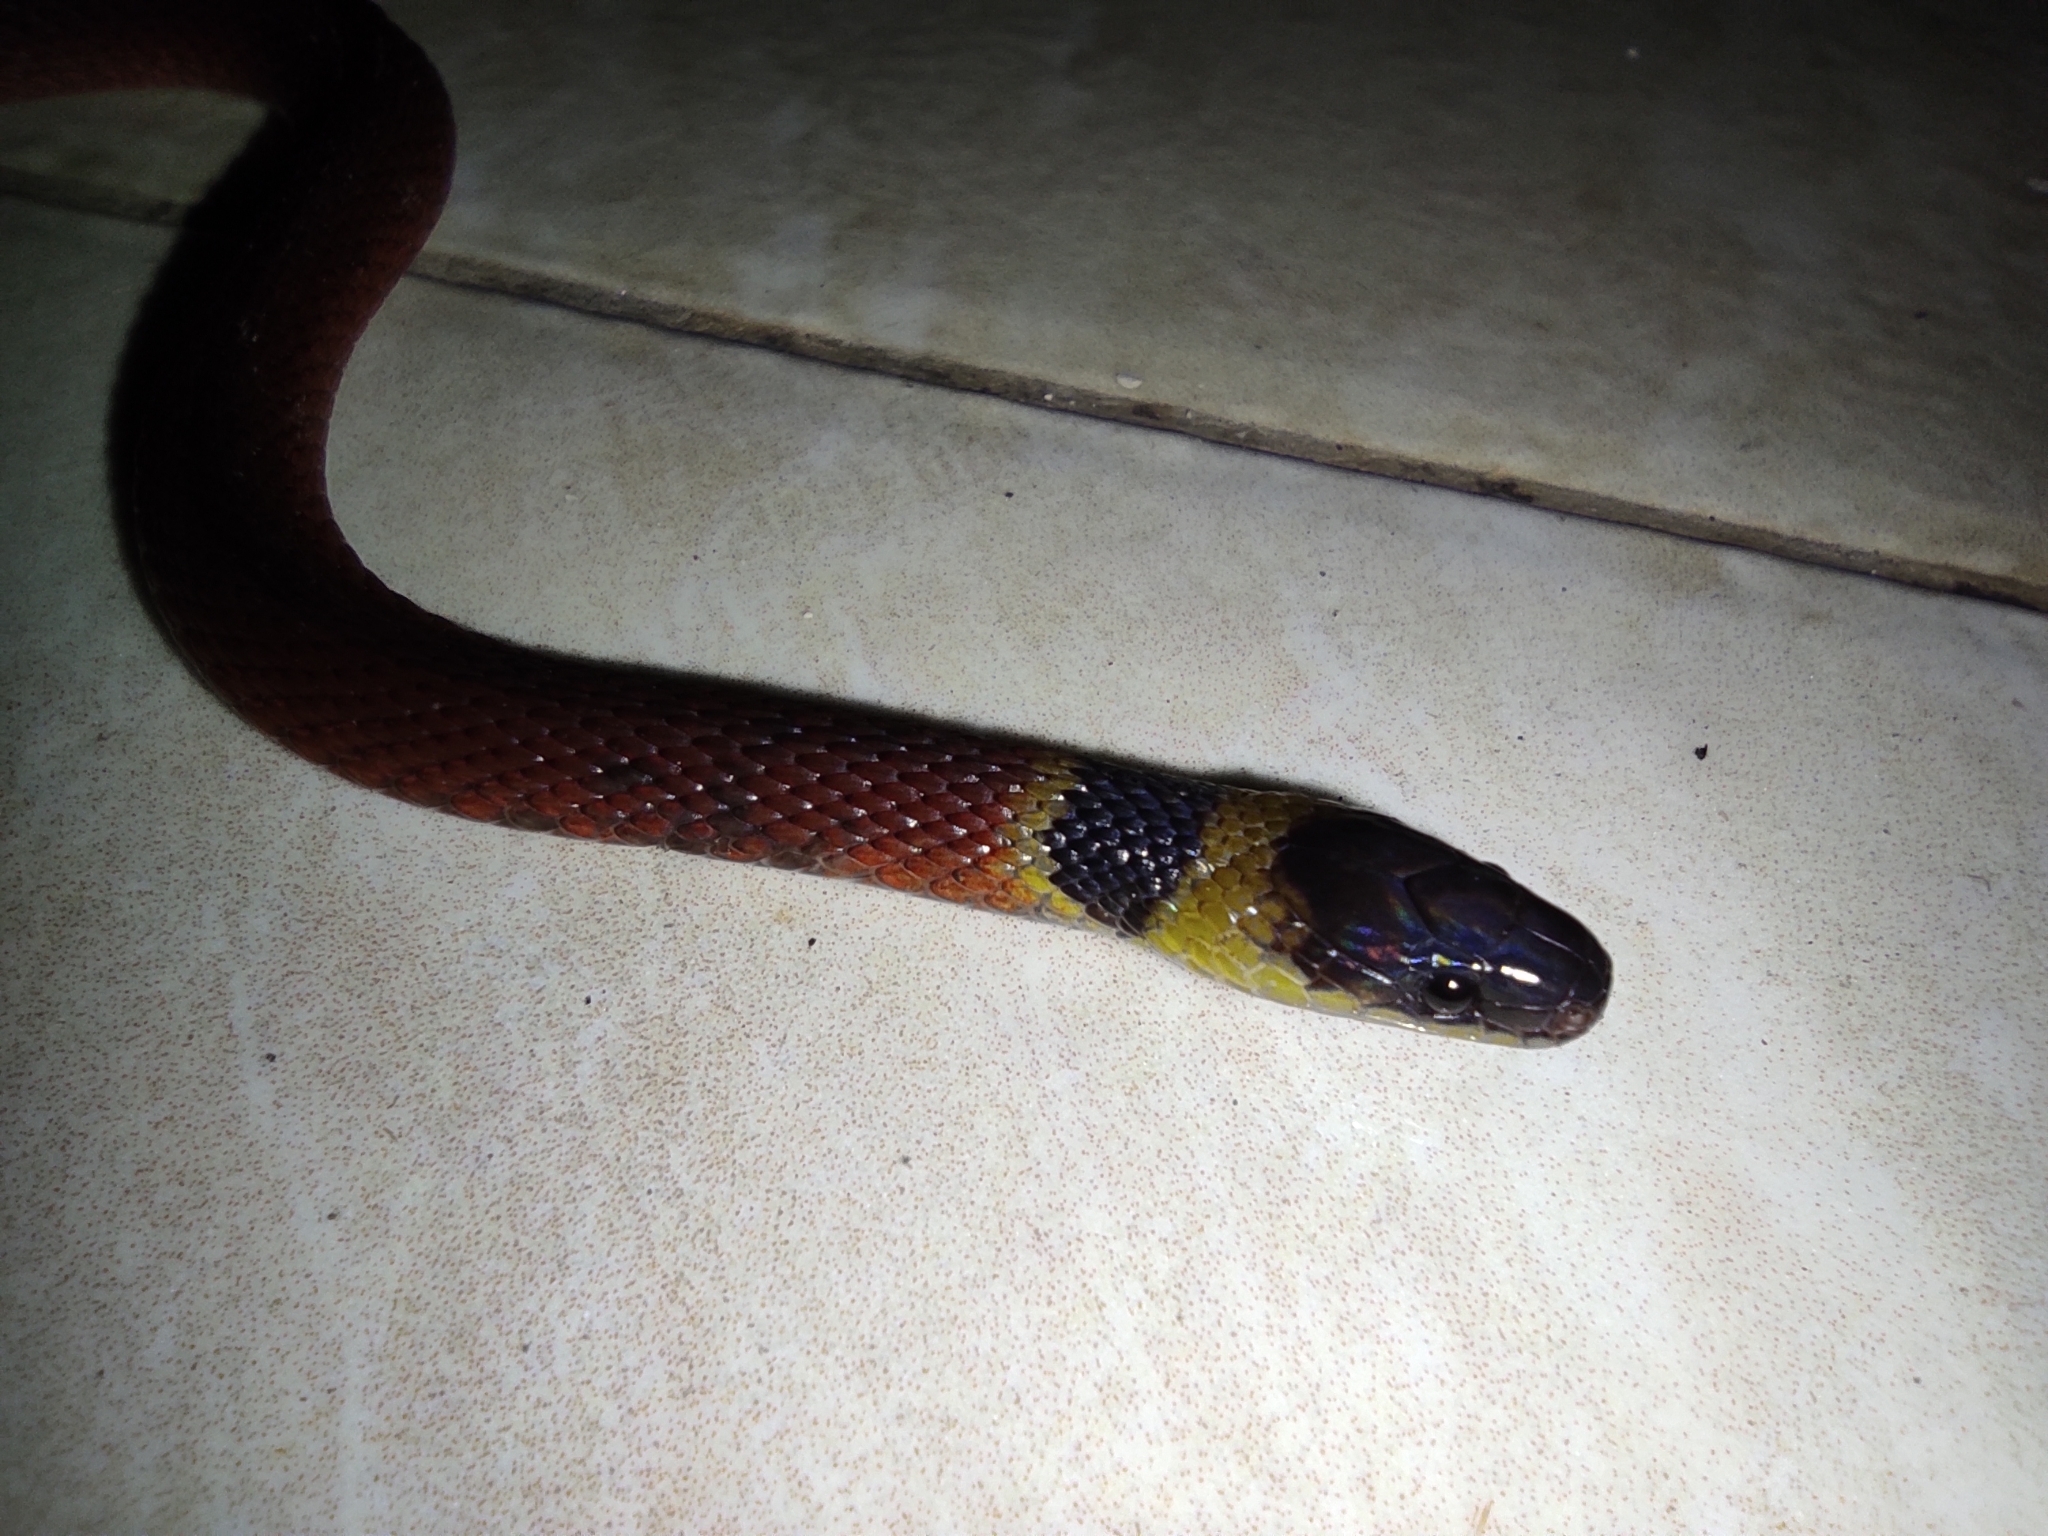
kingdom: Animalia
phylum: Chordata
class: Squamata
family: Colubridae
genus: Ninia
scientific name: Ninia sebae
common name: Redback coffee snake
